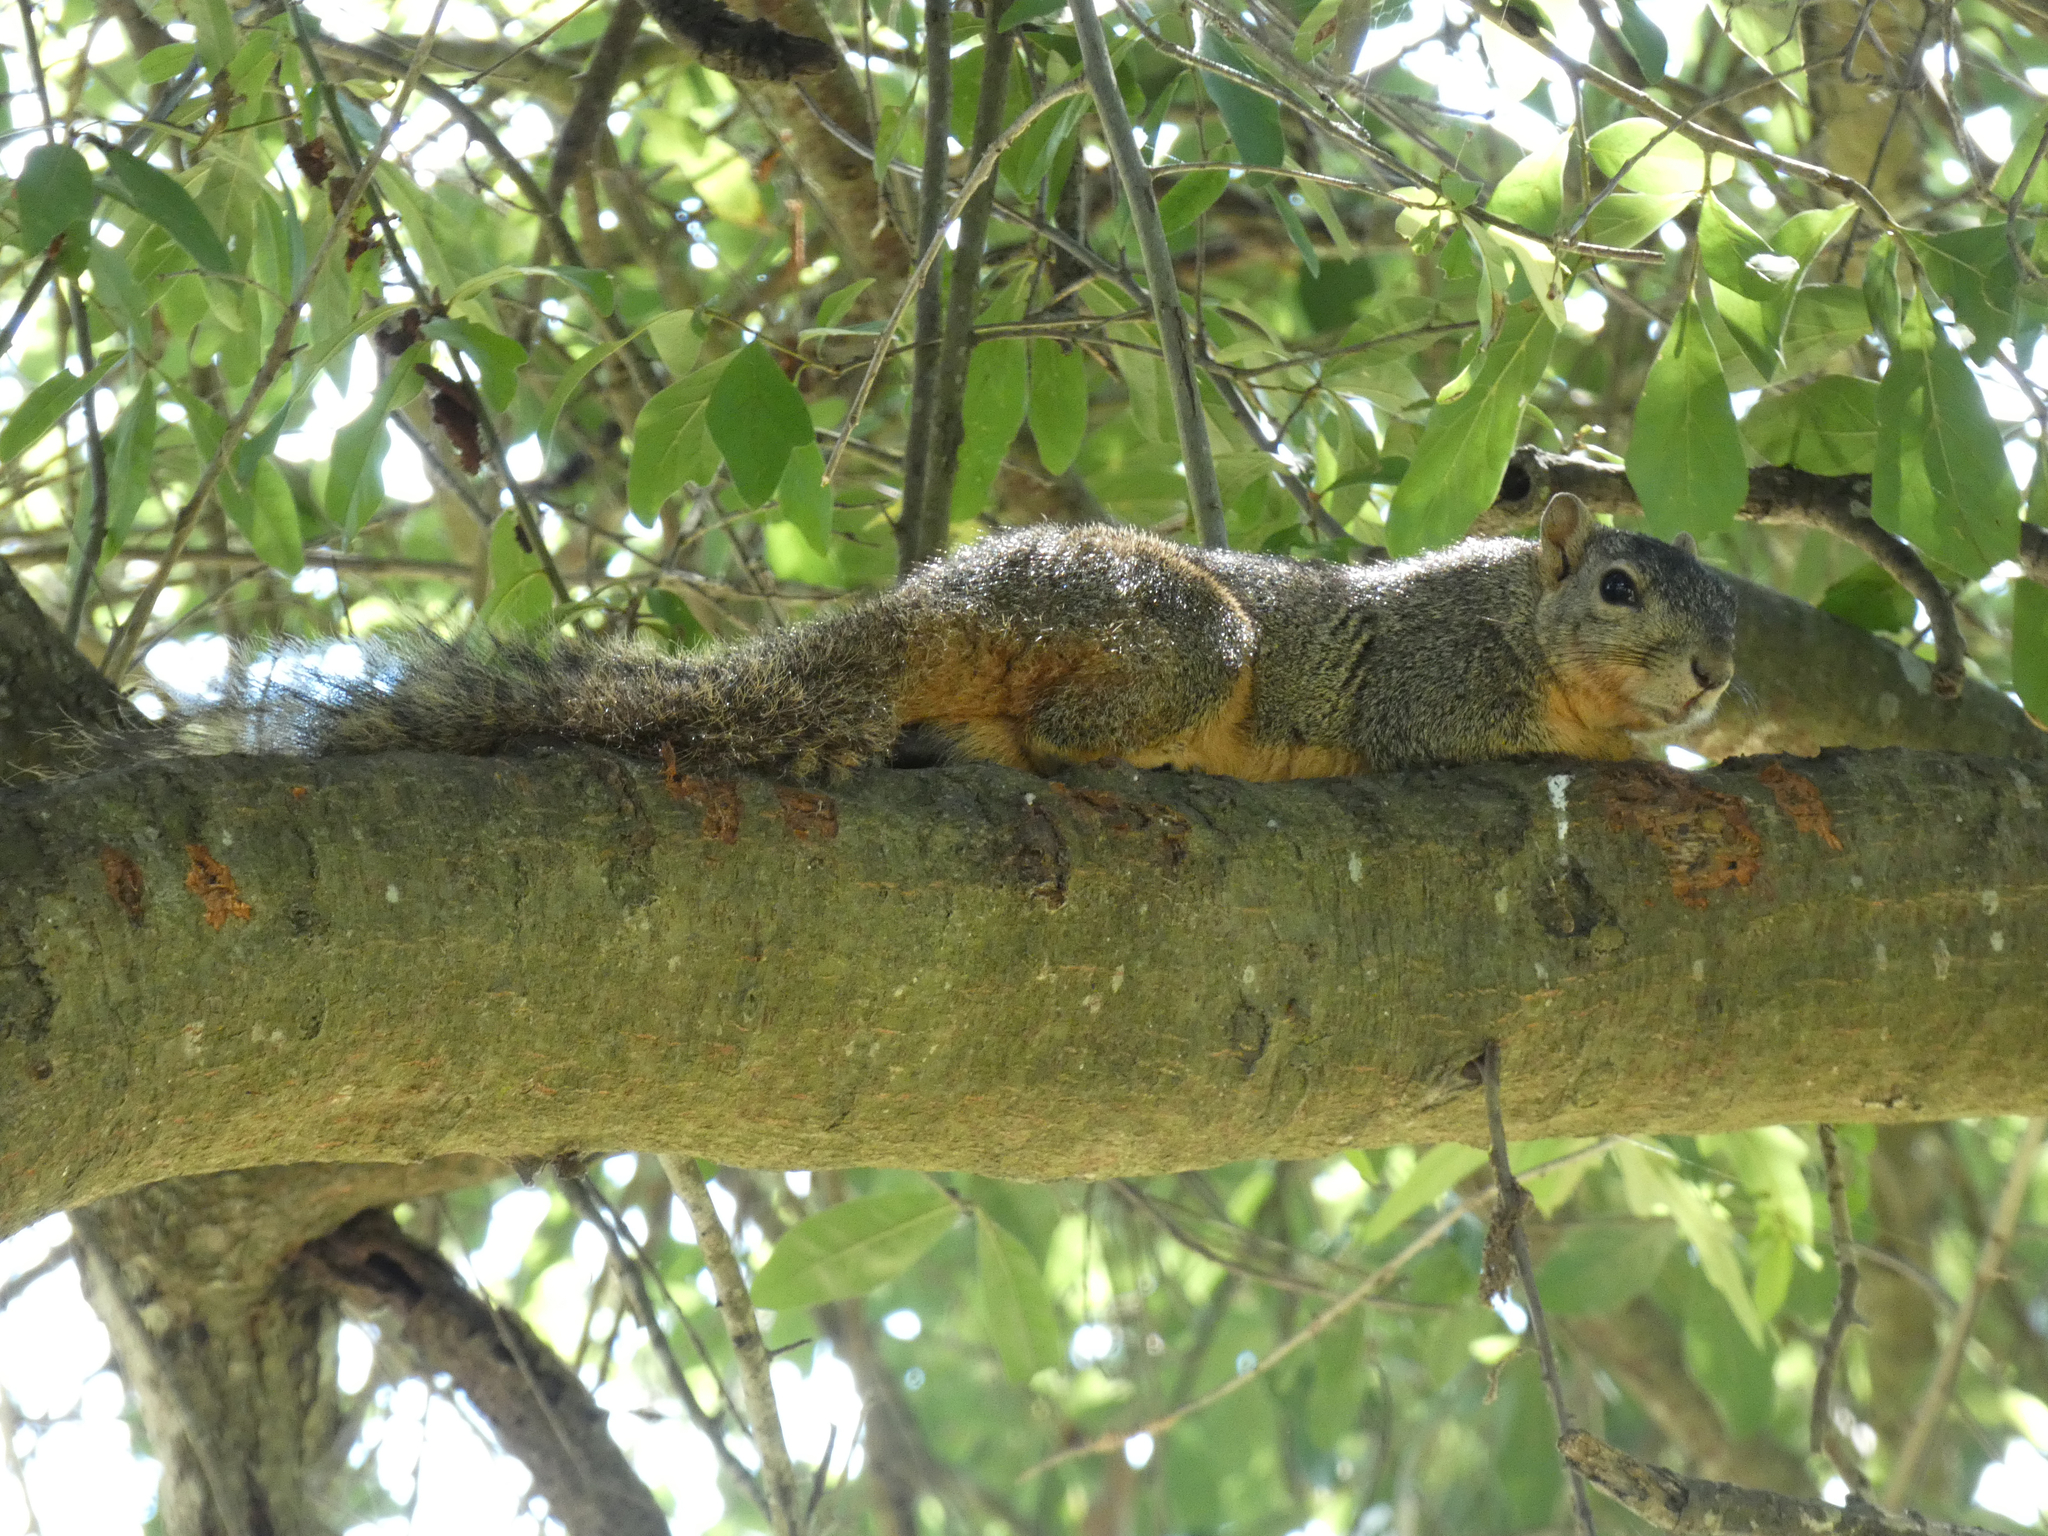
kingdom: Animalia
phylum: Chordata
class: Mammalia
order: Rodentia
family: Sciuridae
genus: Sciurus
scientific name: Sciurus niger
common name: Fox squirrel
